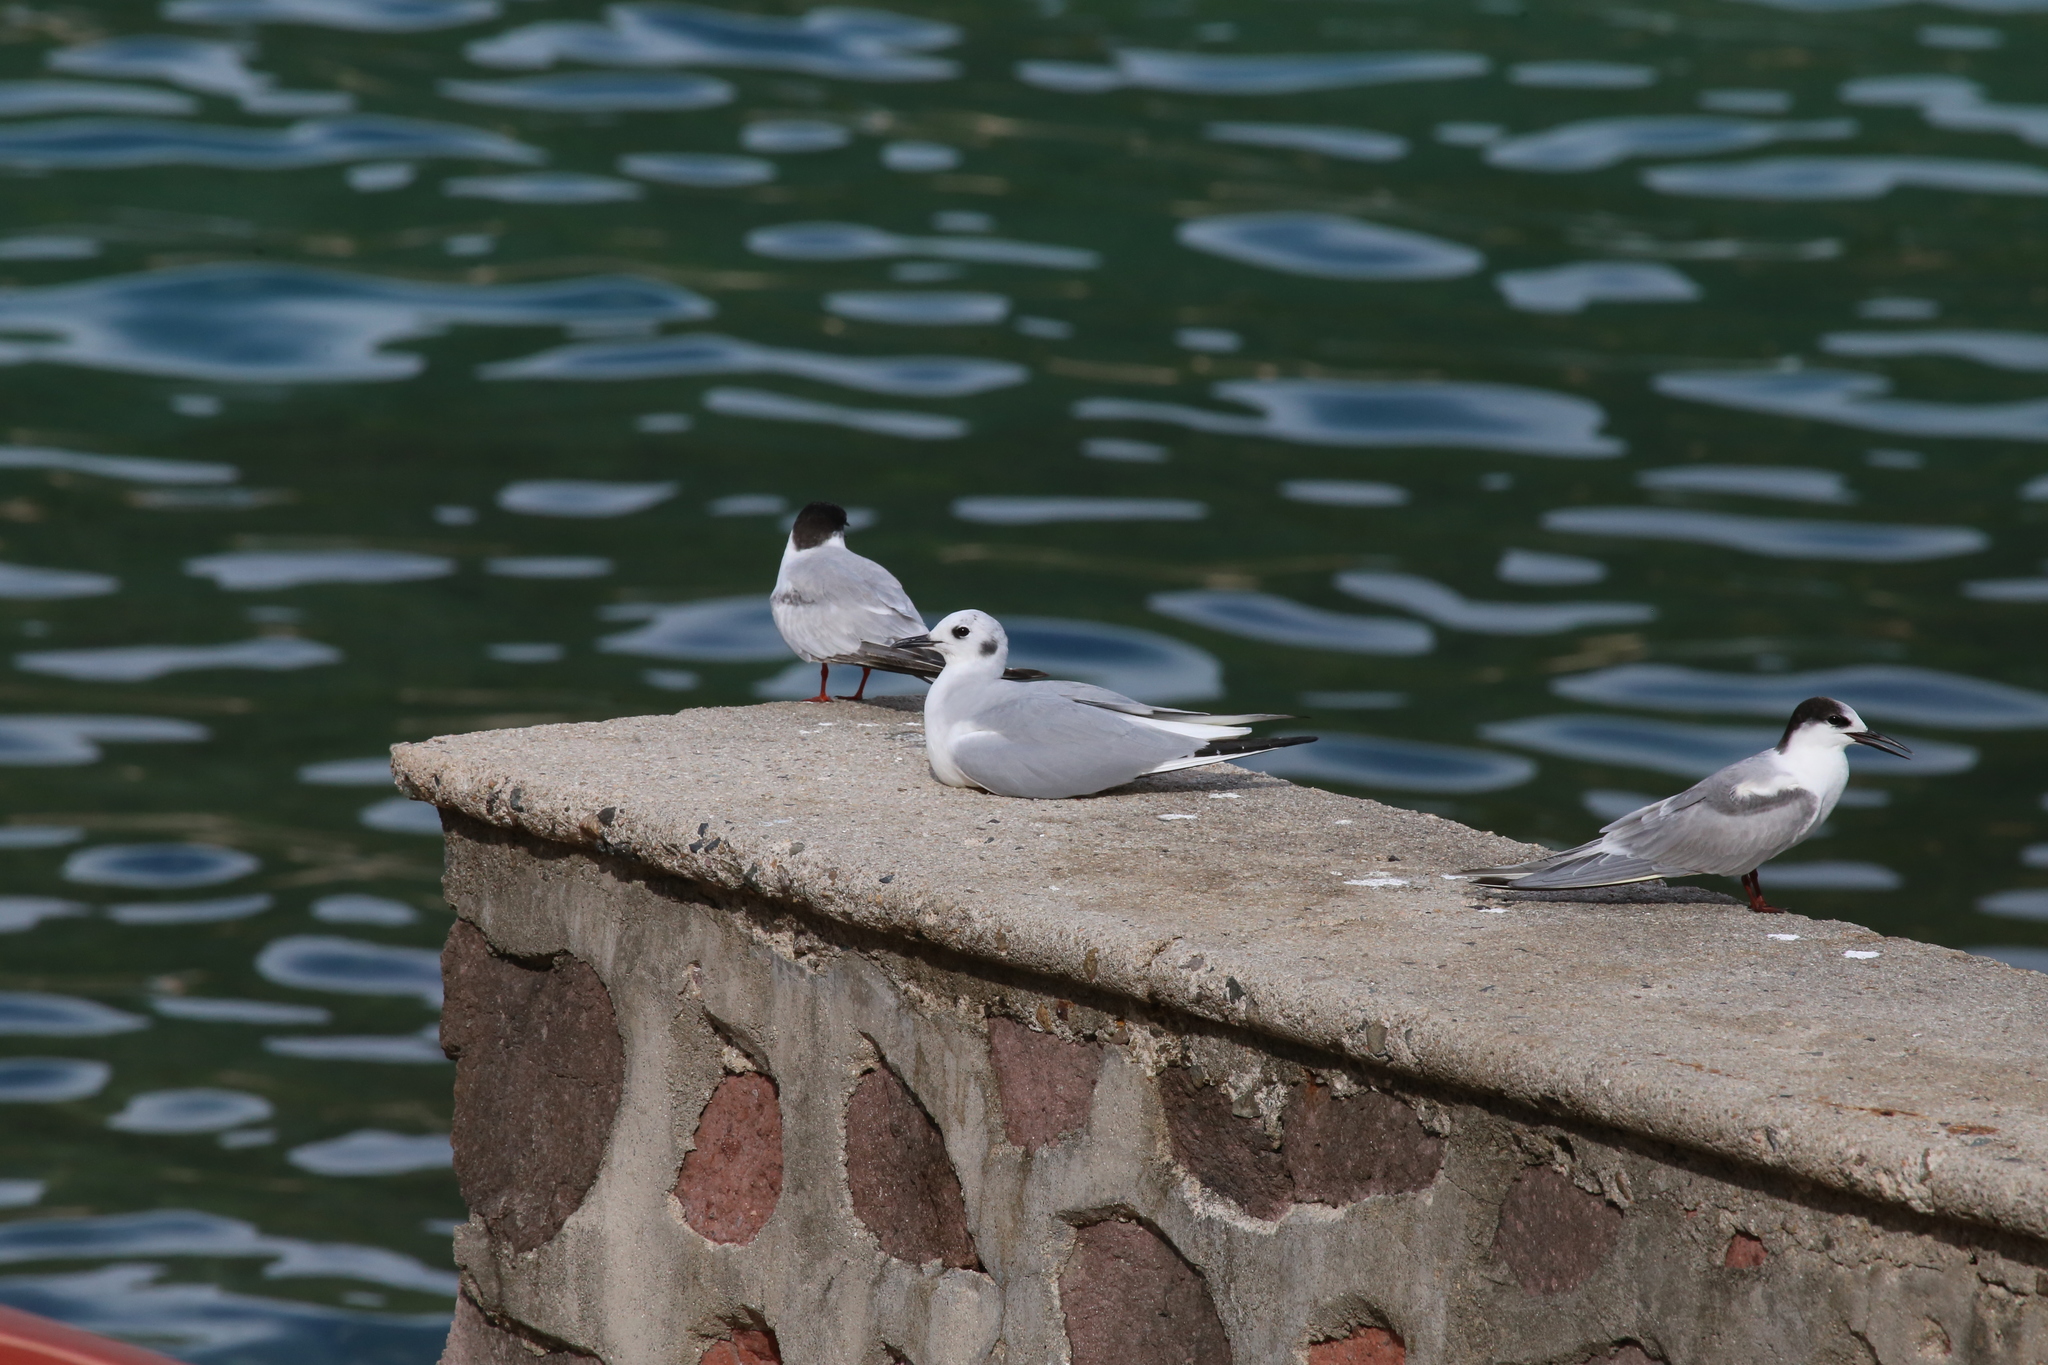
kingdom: Animalia
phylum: Chordata
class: Aves
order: Charadriiformes
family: Laridae
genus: Chroicocephalus
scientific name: Chroicocephalus philadelphia
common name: Bonaparte's gull
